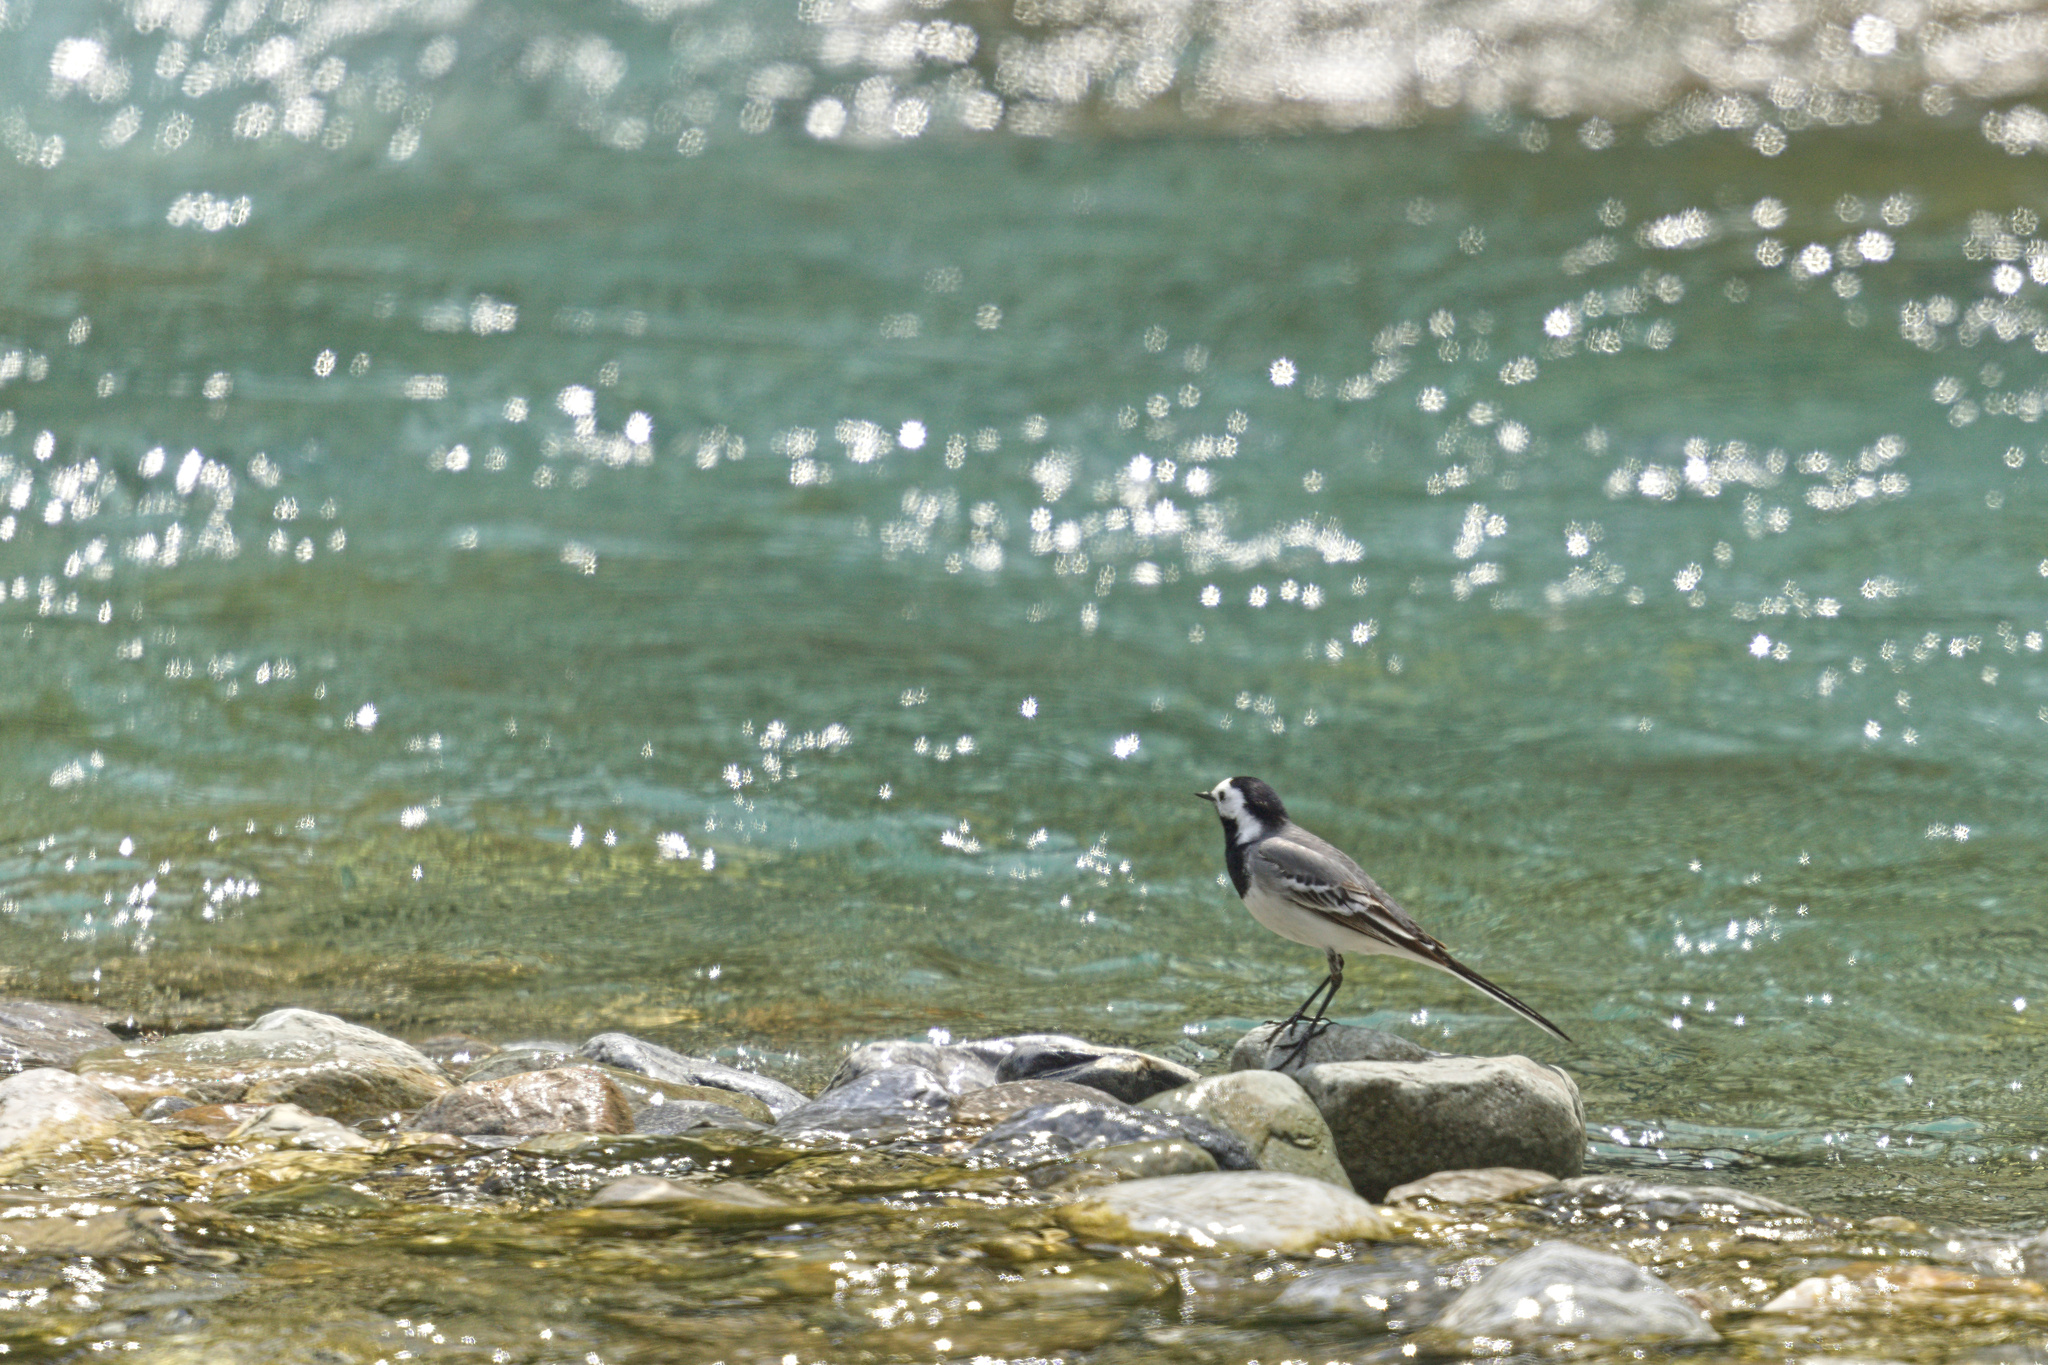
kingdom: Animalia
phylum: Chordata
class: Aves
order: Passeriformes
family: Motacillidae
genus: Motacilla
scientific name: Motacilla alba
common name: White wagtail
